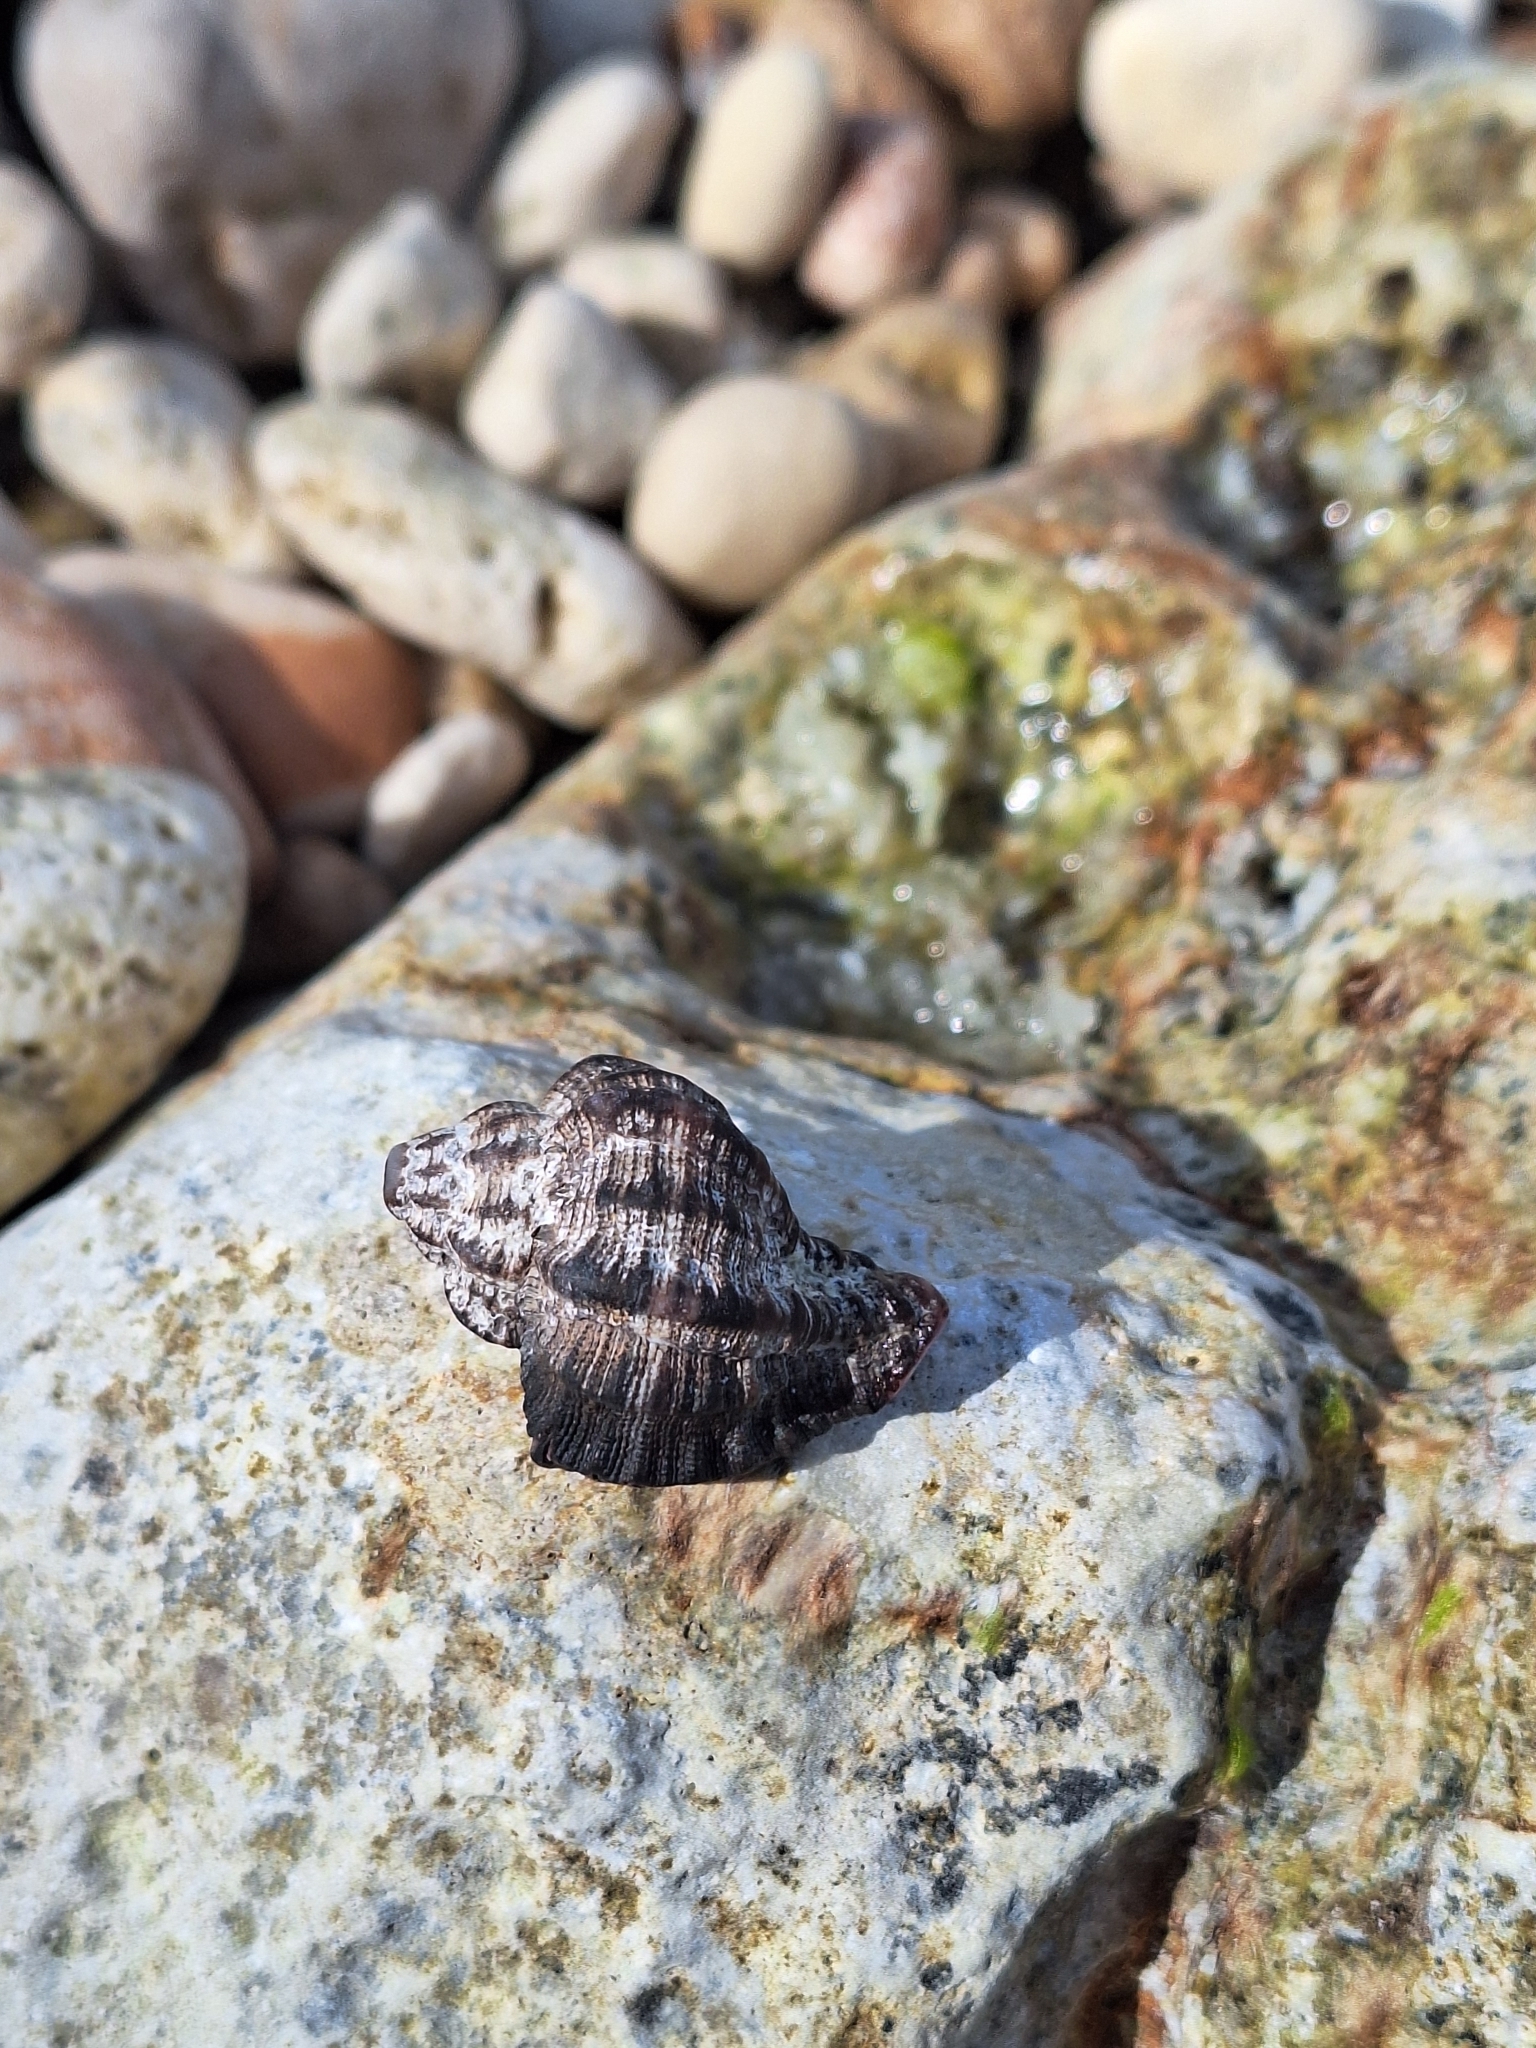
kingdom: Animalia
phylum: Mollusca
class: Gastropoda
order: Neogastropoda
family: Muricidae
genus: Hexaplex
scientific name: Hexaplex trunculus
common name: Banded dye-murex
